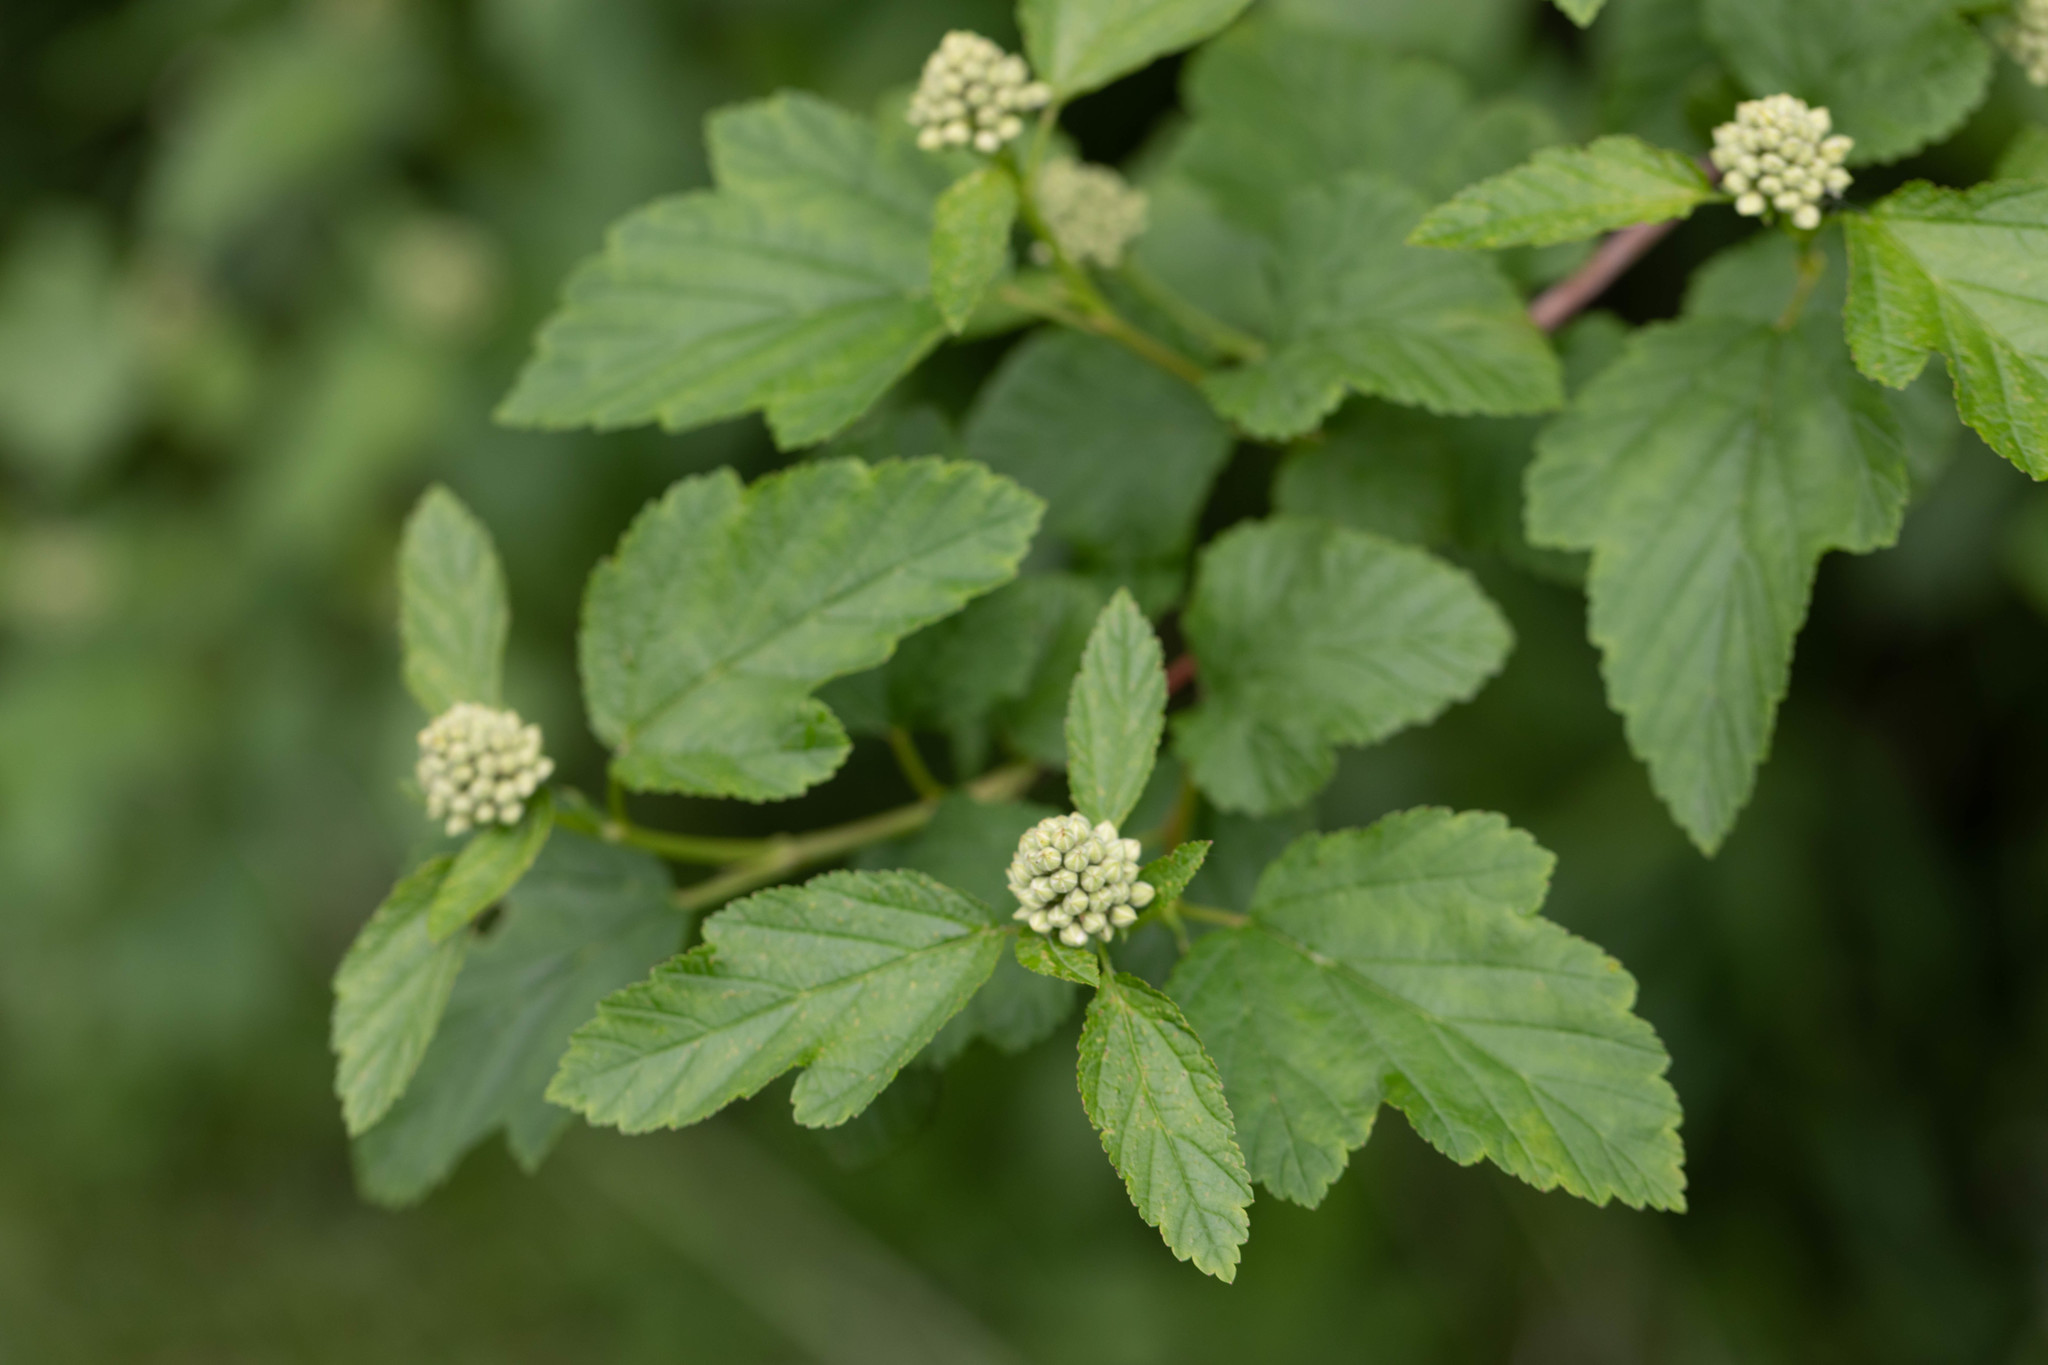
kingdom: Plantae
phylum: Tracheophyta
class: Magnoliopsida
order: Rosales
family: Rosaceae
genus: Physocarpus
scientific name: Physocarpus opulifolius
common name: Ninebark
